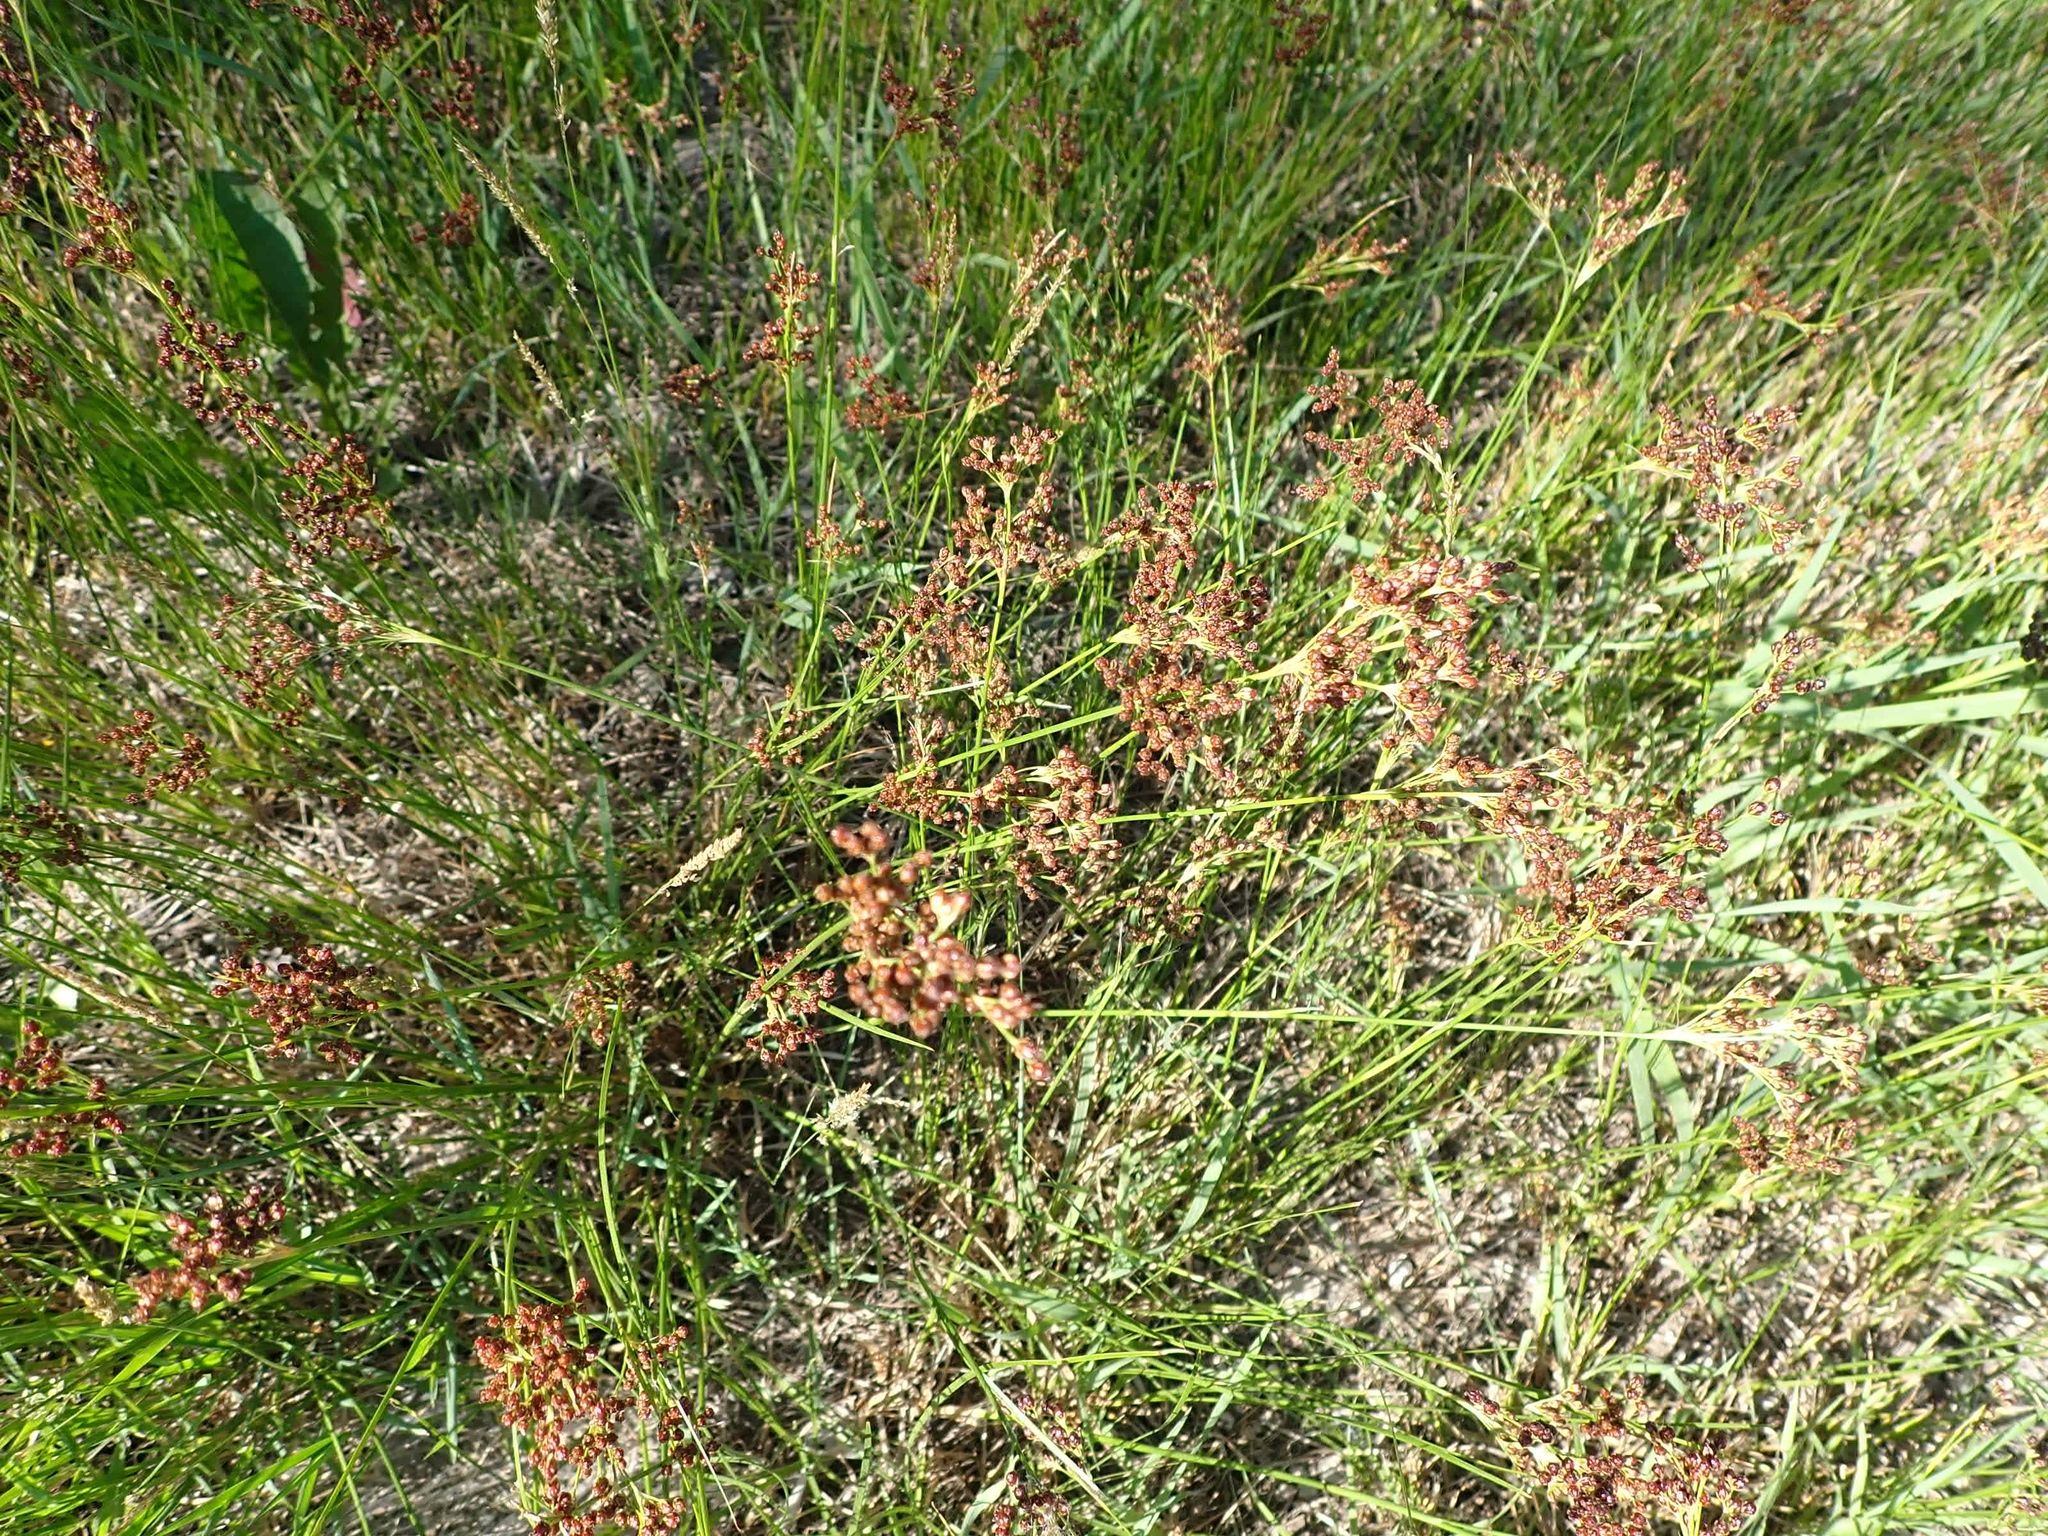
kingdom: Plantae
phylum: Tracheophyta
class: Liliopsida
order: Poales
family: Juncaceae
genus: Juncus
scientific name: Juncus compressus
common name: Round-fruited rush
